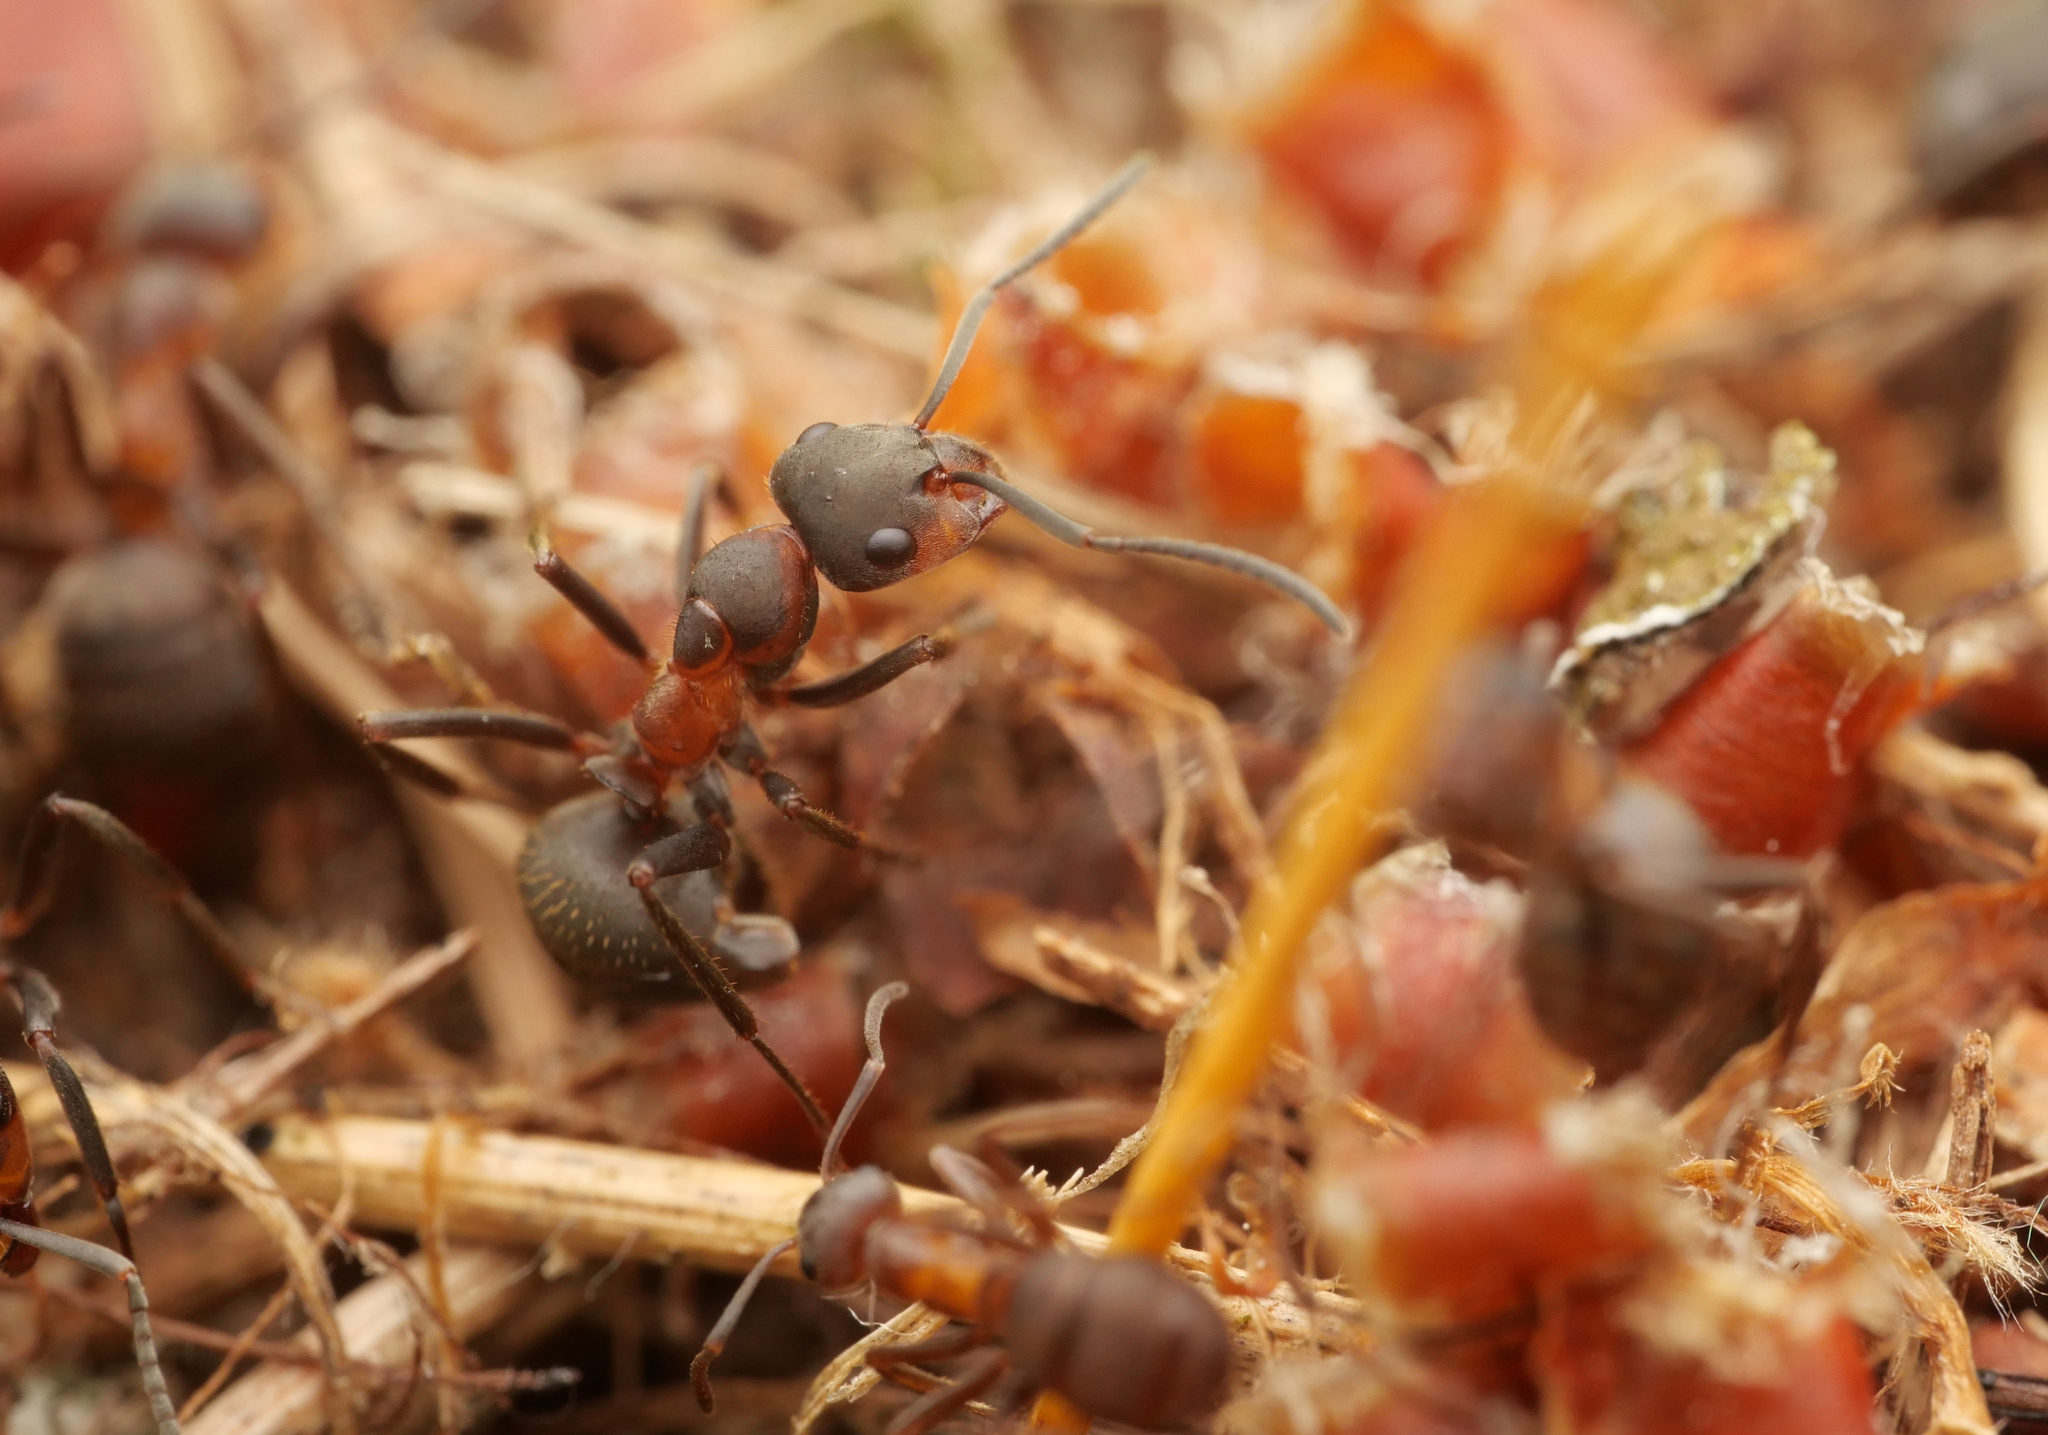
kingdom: Animalia
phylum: Arthropoda
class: Insecta
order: Hymenoptera
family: Formicidae
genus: Formica
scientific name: Formica pratensis
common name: European red wood ant
